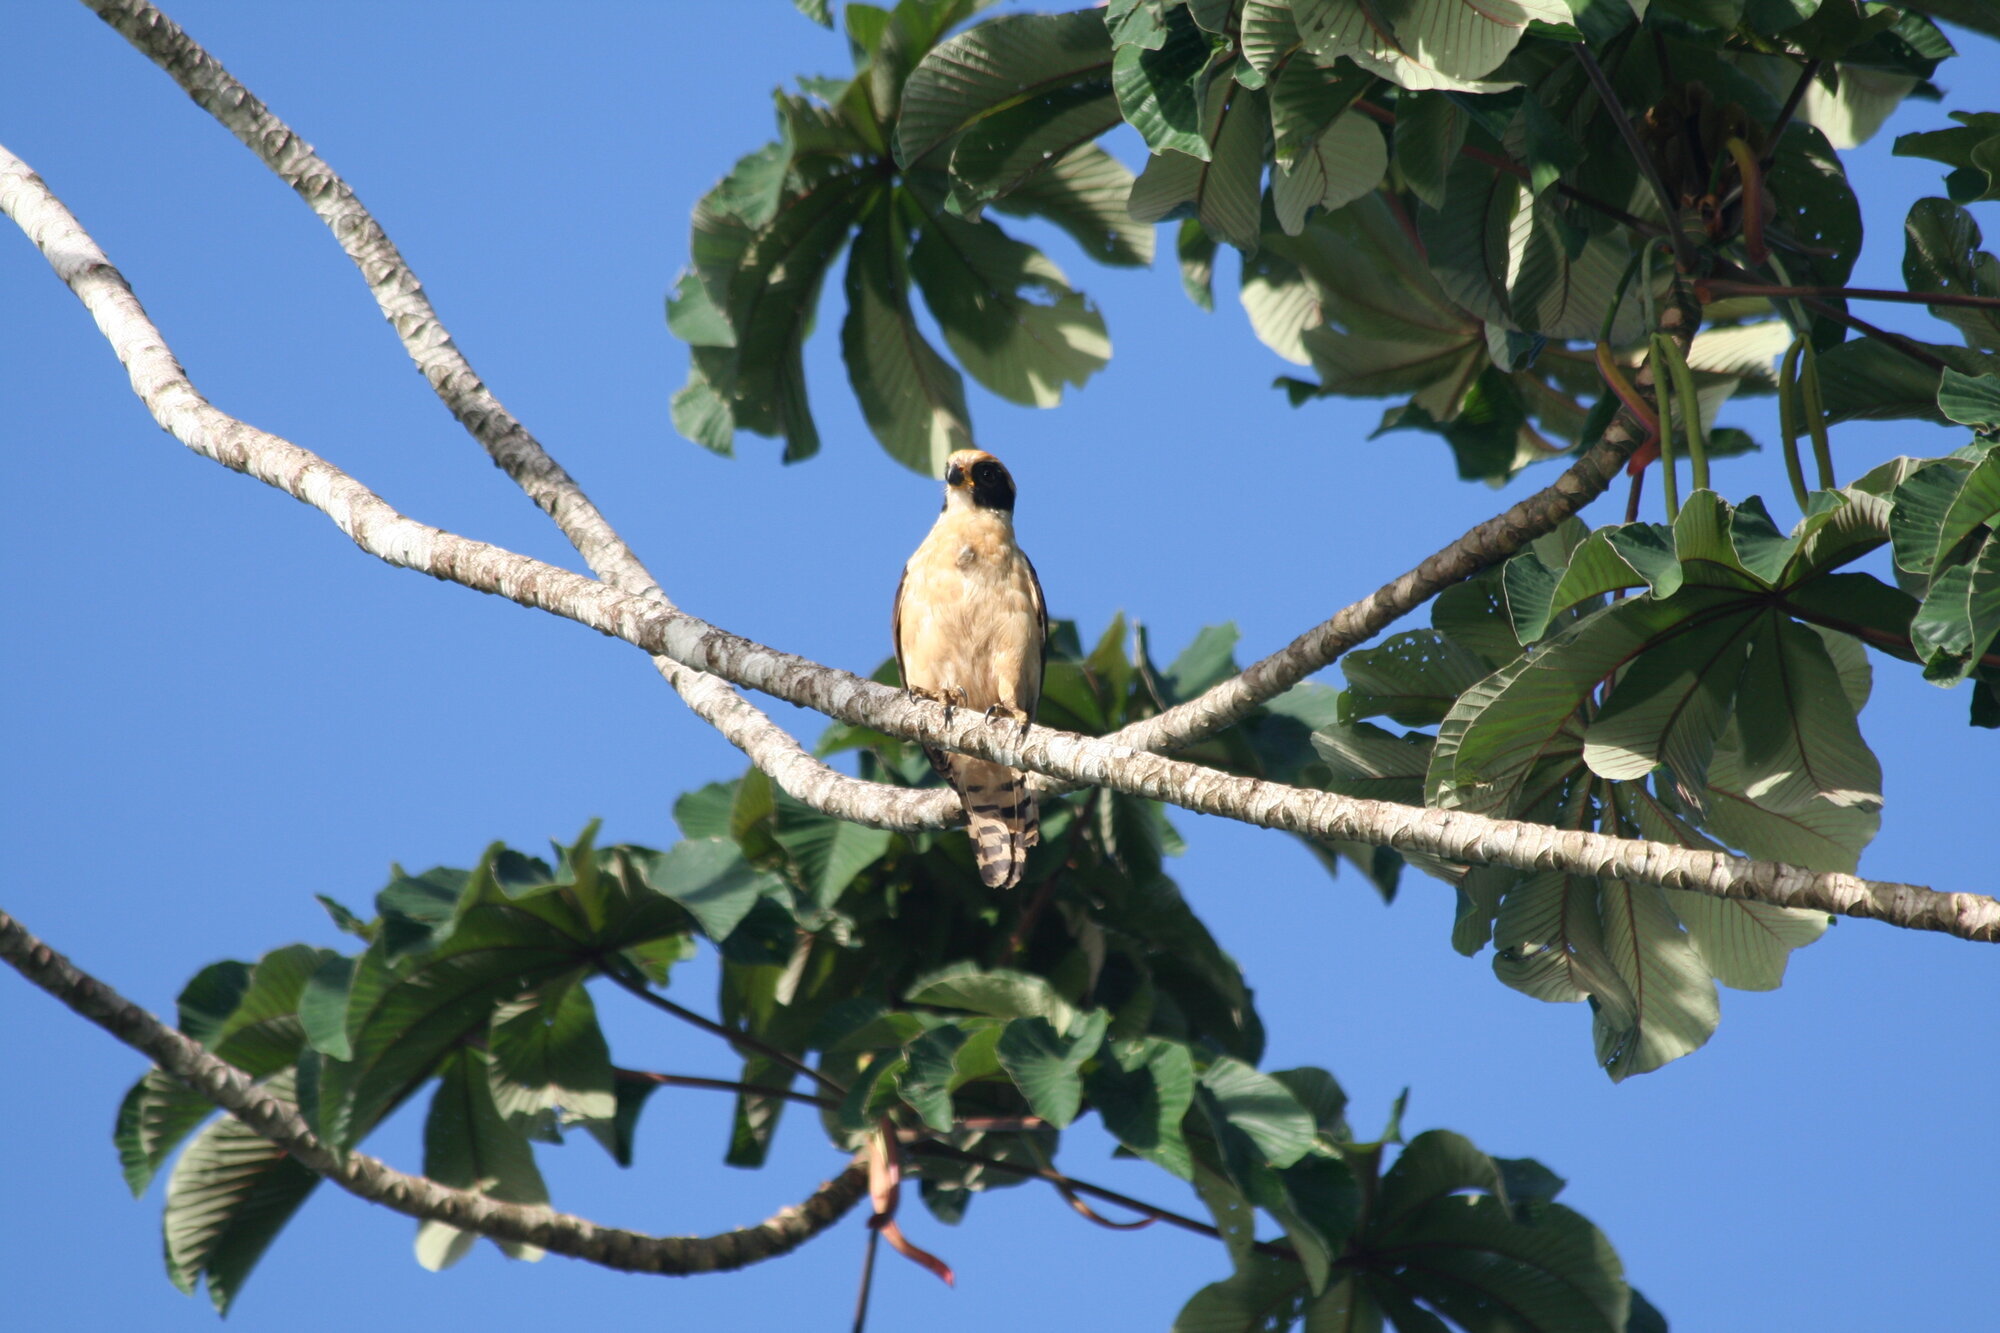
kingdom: Animalia
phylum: Chordata
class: Aves
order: Falconiformes
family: Falconidae
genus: Herpetotheres
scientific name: Herpetotheres cachinnans
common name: Laughing falcon
